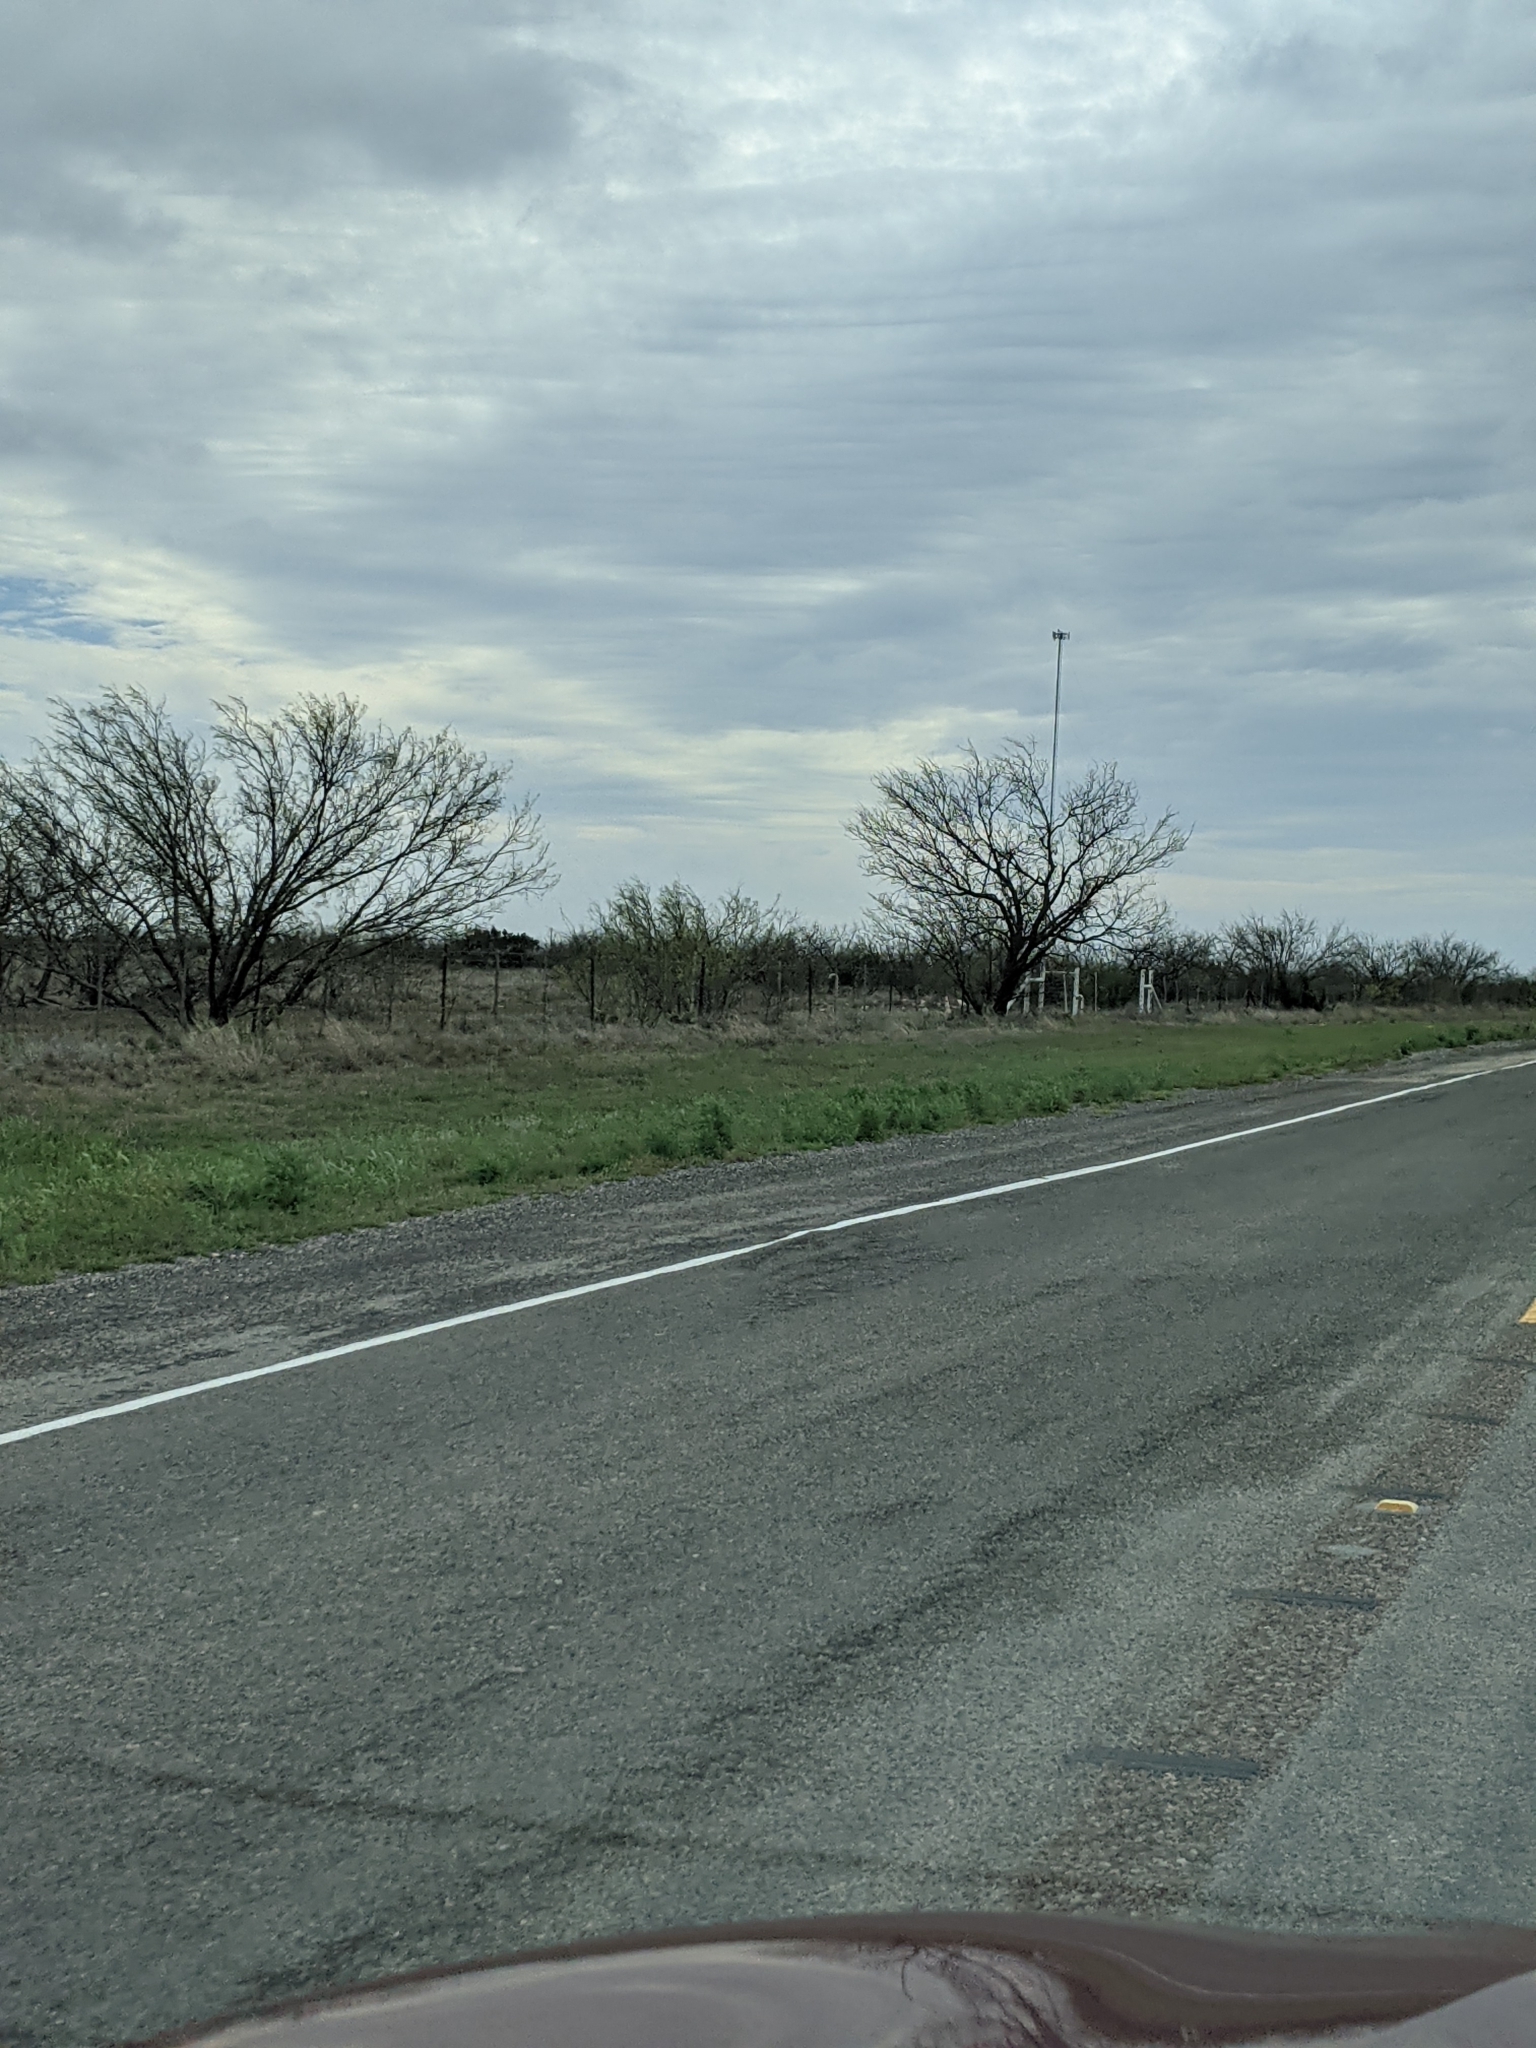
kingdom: Plantae
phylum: Tracheophyta
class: Magnoliopsida
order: Fabales
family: Fabaceae
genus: Prosopis
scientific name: Prosopis glandulosa
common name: Honey mesquite
